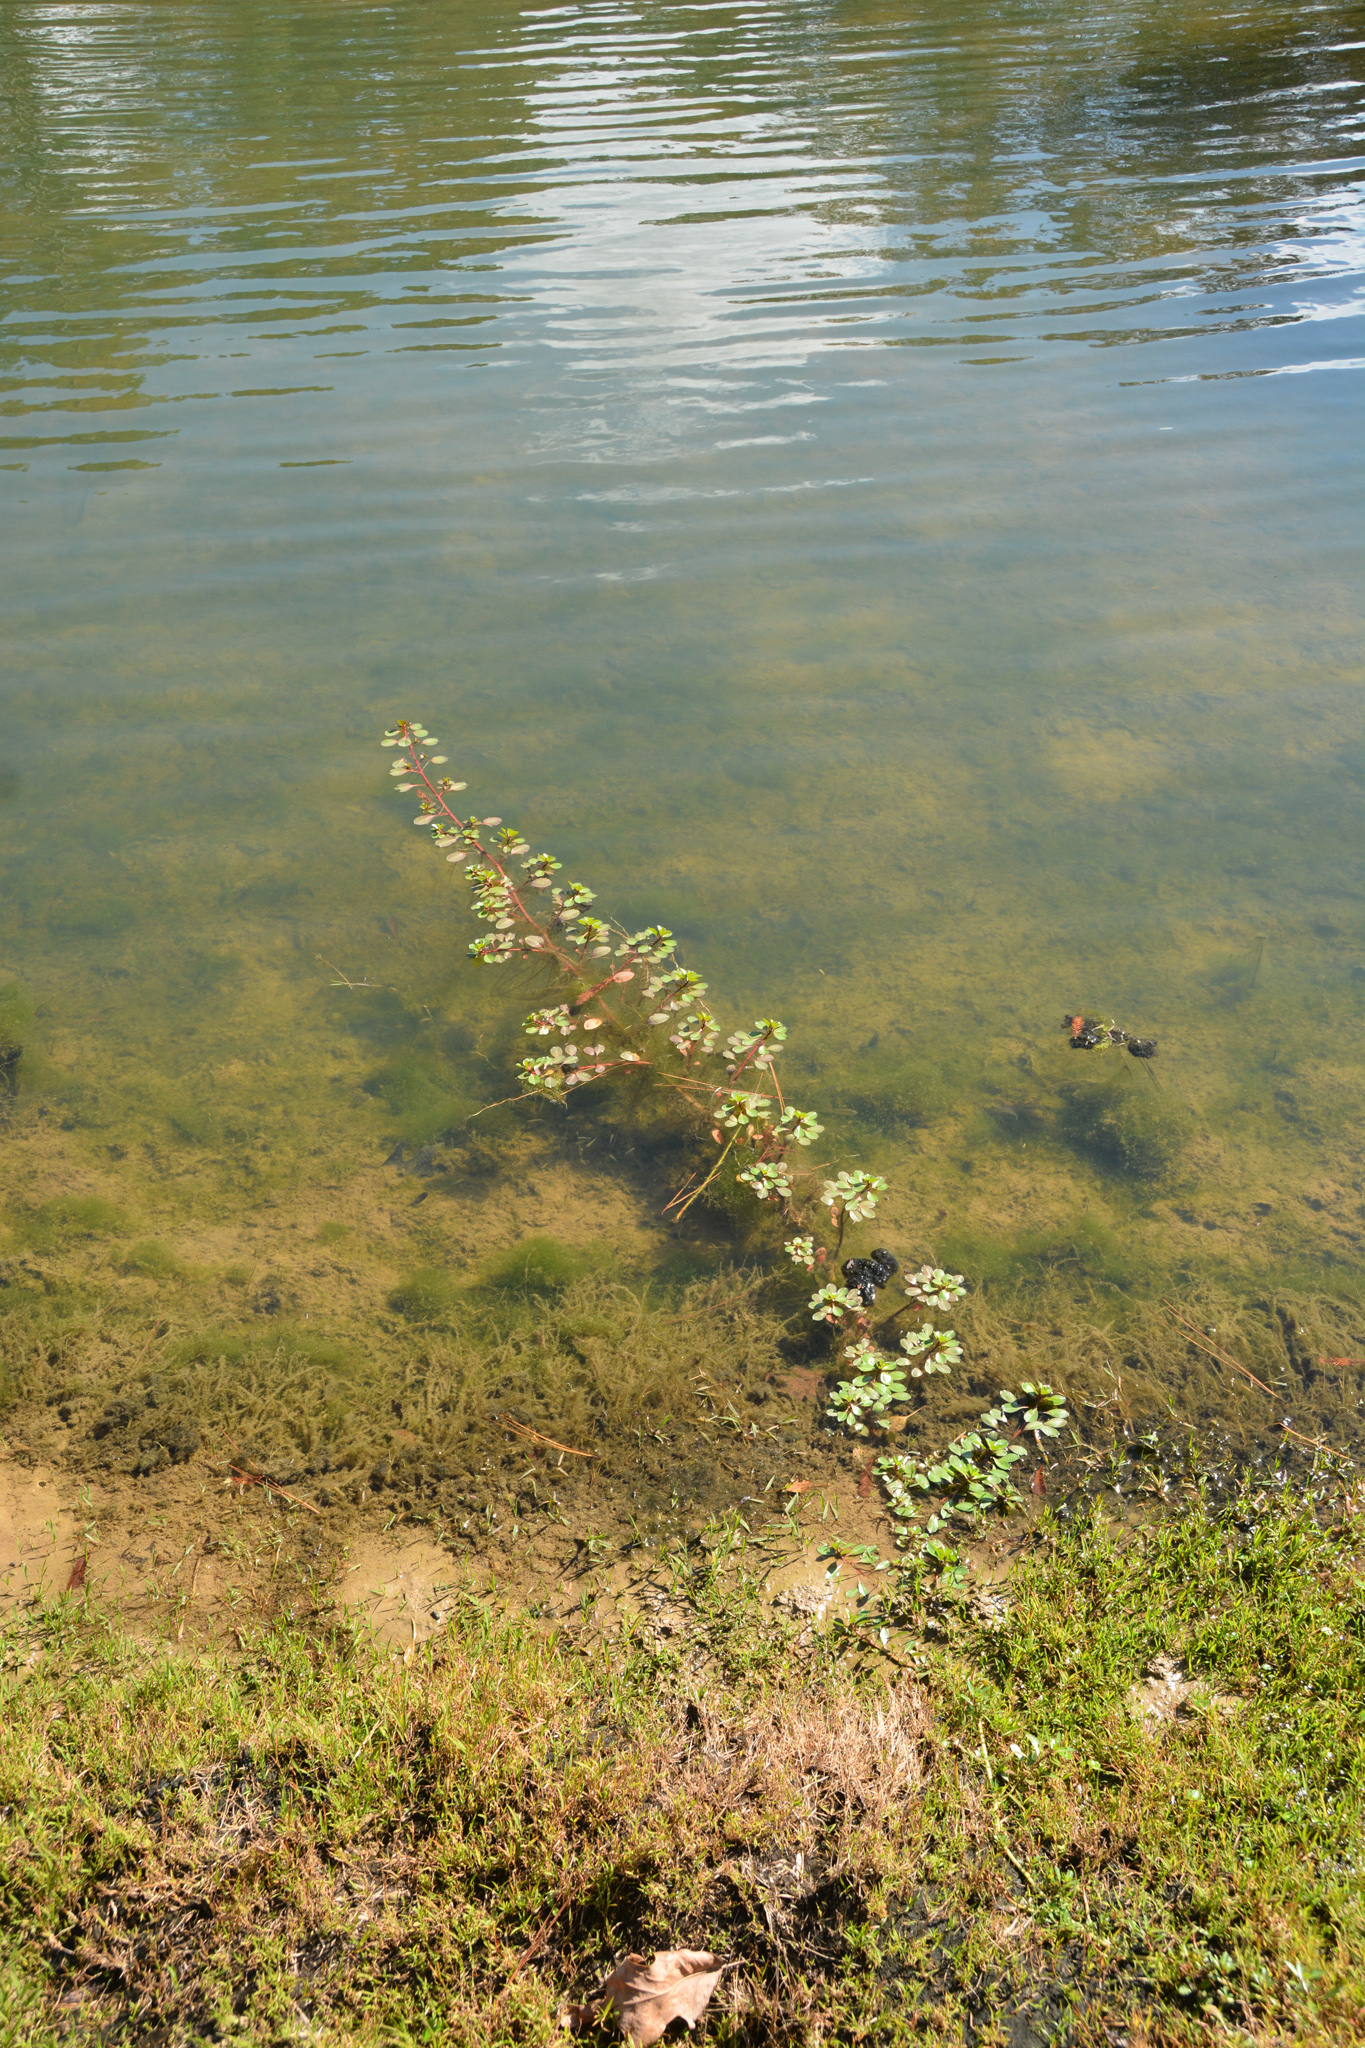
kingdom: Plantae
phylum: Tracheophyta
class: Magnoliopsida
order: Myrtales
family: Onagraceae
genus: Ludwigia
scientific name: Ludwigia peploides
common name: Floating primrose-willow
